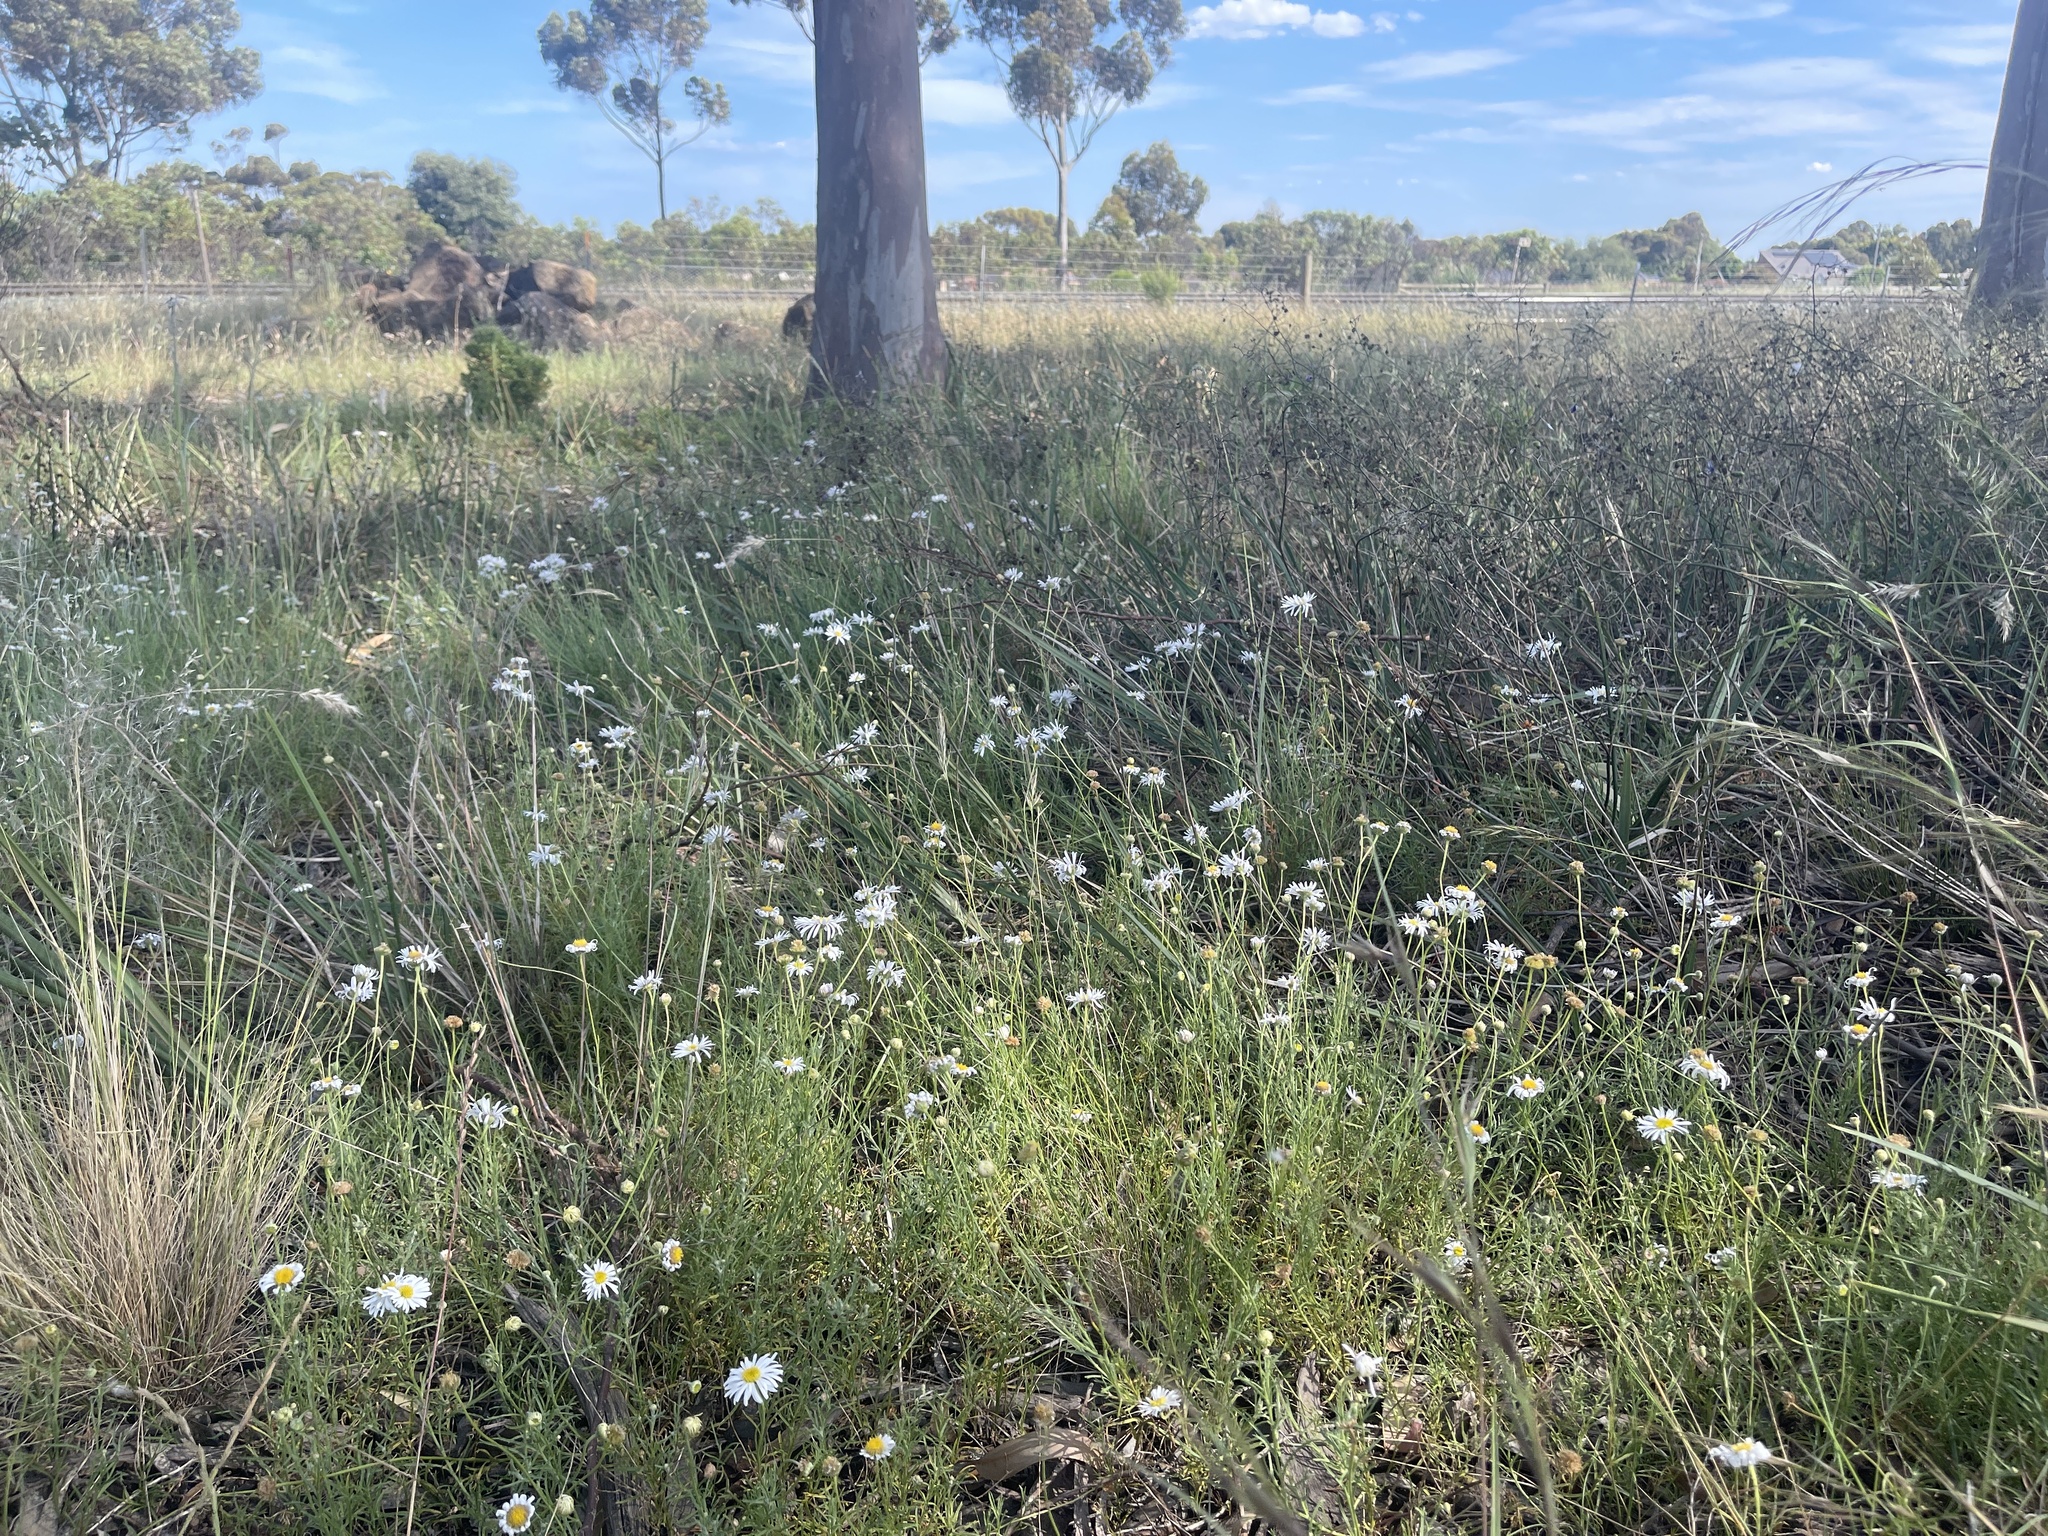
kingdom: Plantae
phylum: Tracheophyta
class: Magnoliopsida
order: Asterales
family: Asteraceae
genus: Vittadinia
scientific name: Vittadinia dentata
